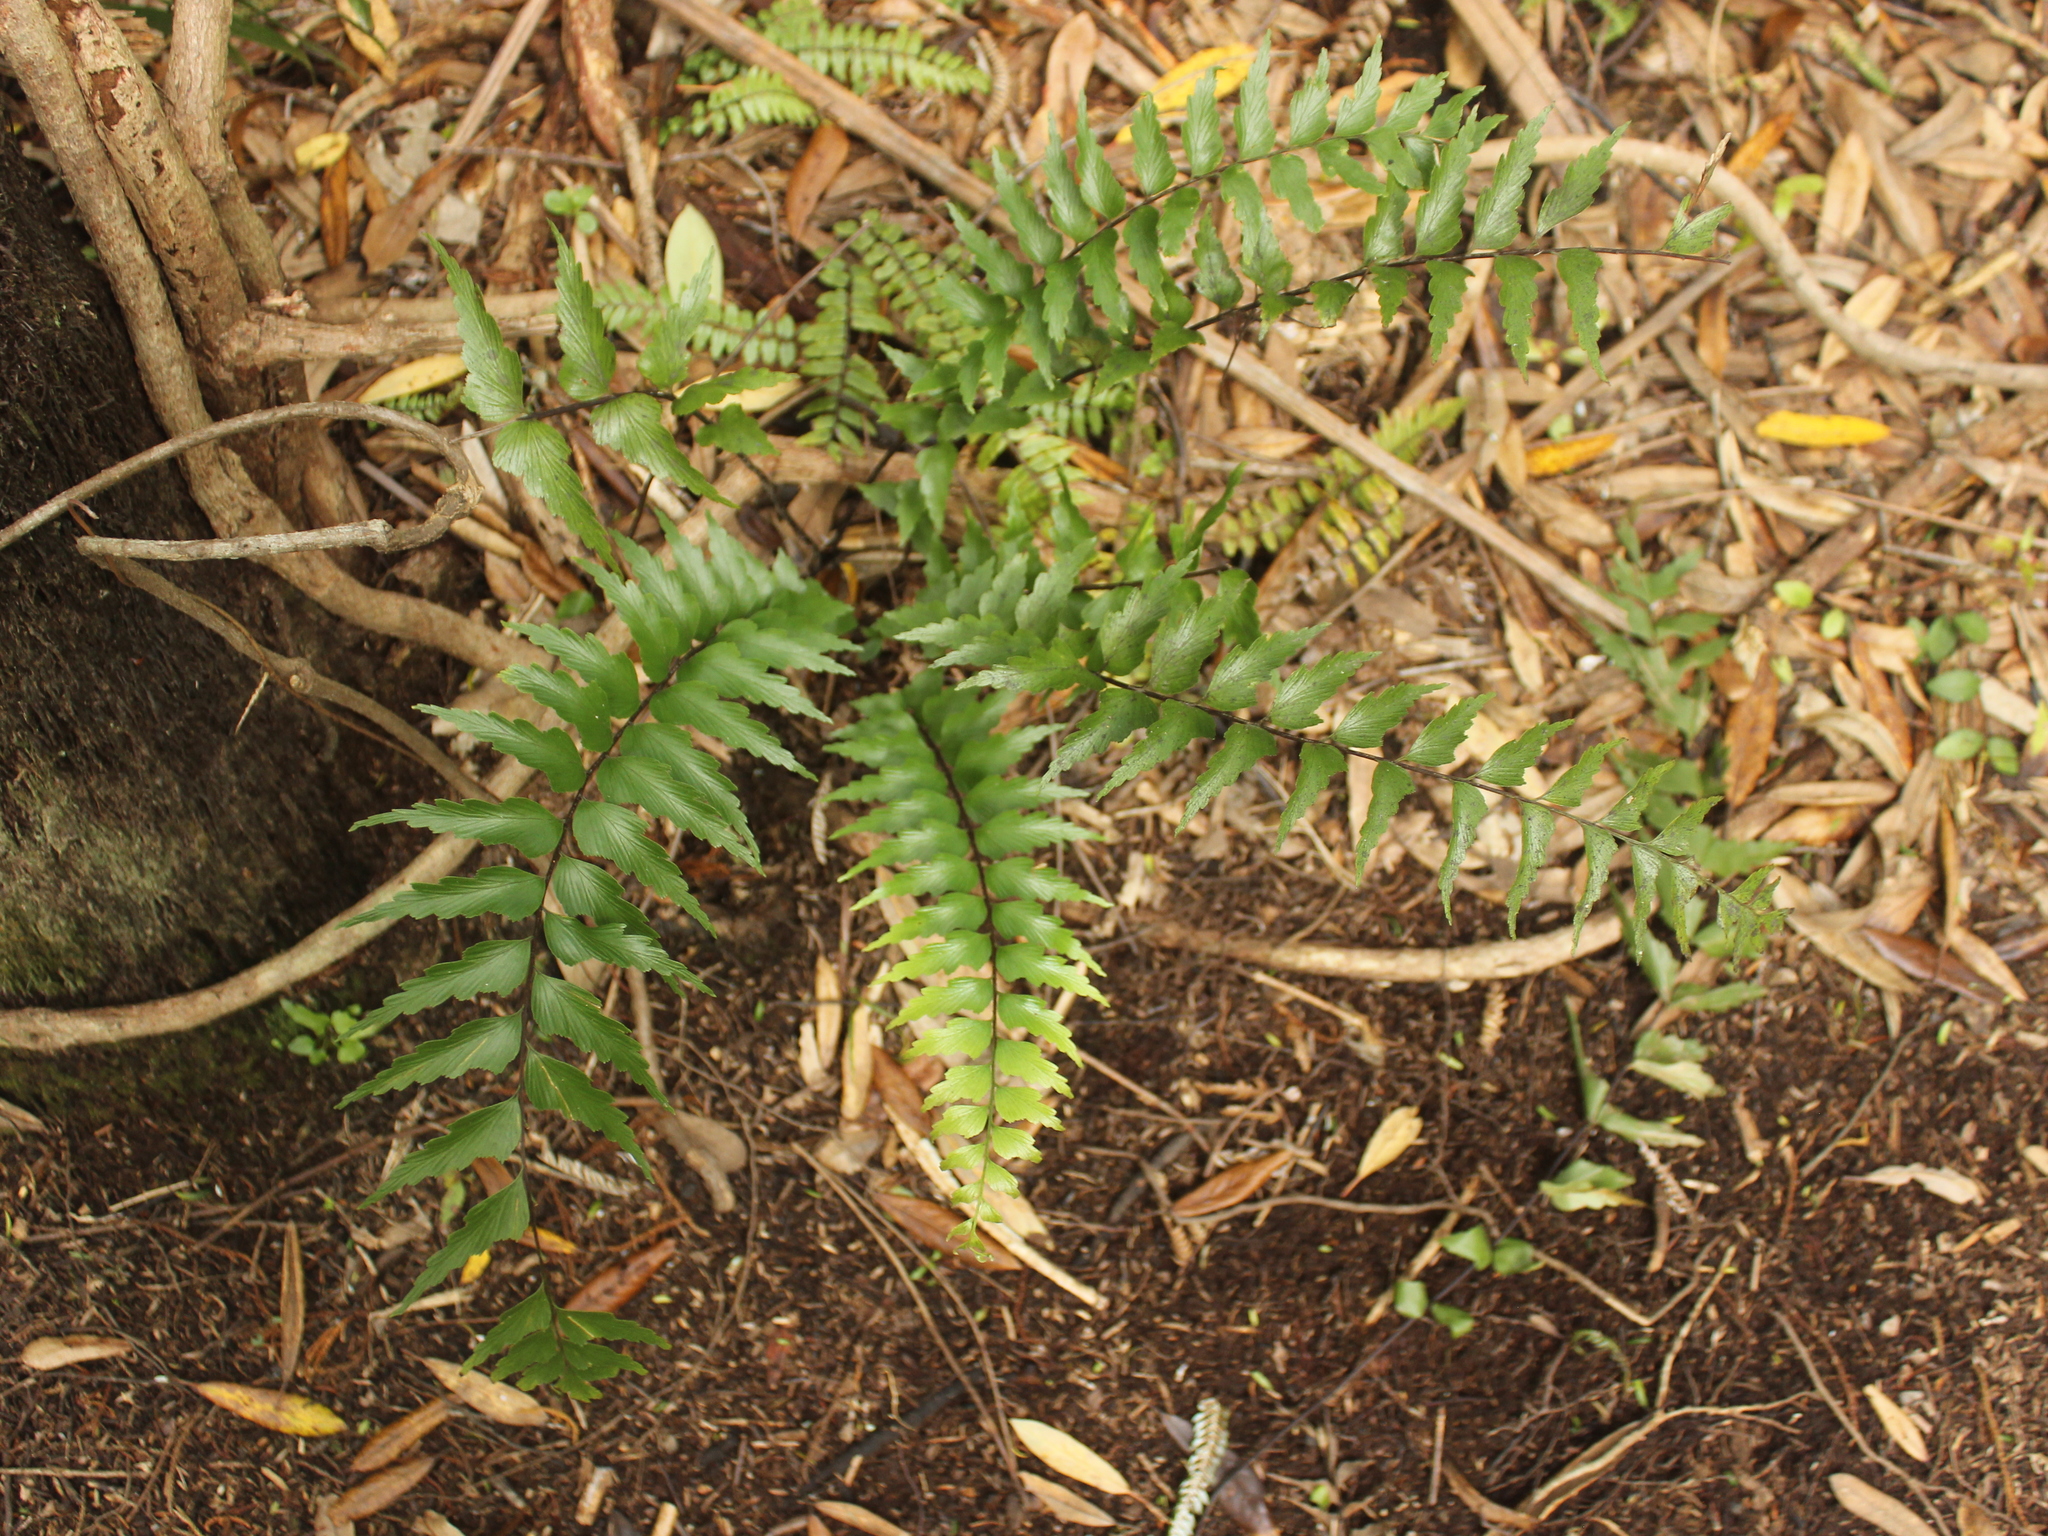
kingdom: Plantae
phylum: Tracheophyta
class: Polypodiopsida
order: Polypodiales
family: Aspleniaceae
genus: Asplenium
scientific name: Asplenium polyodon
